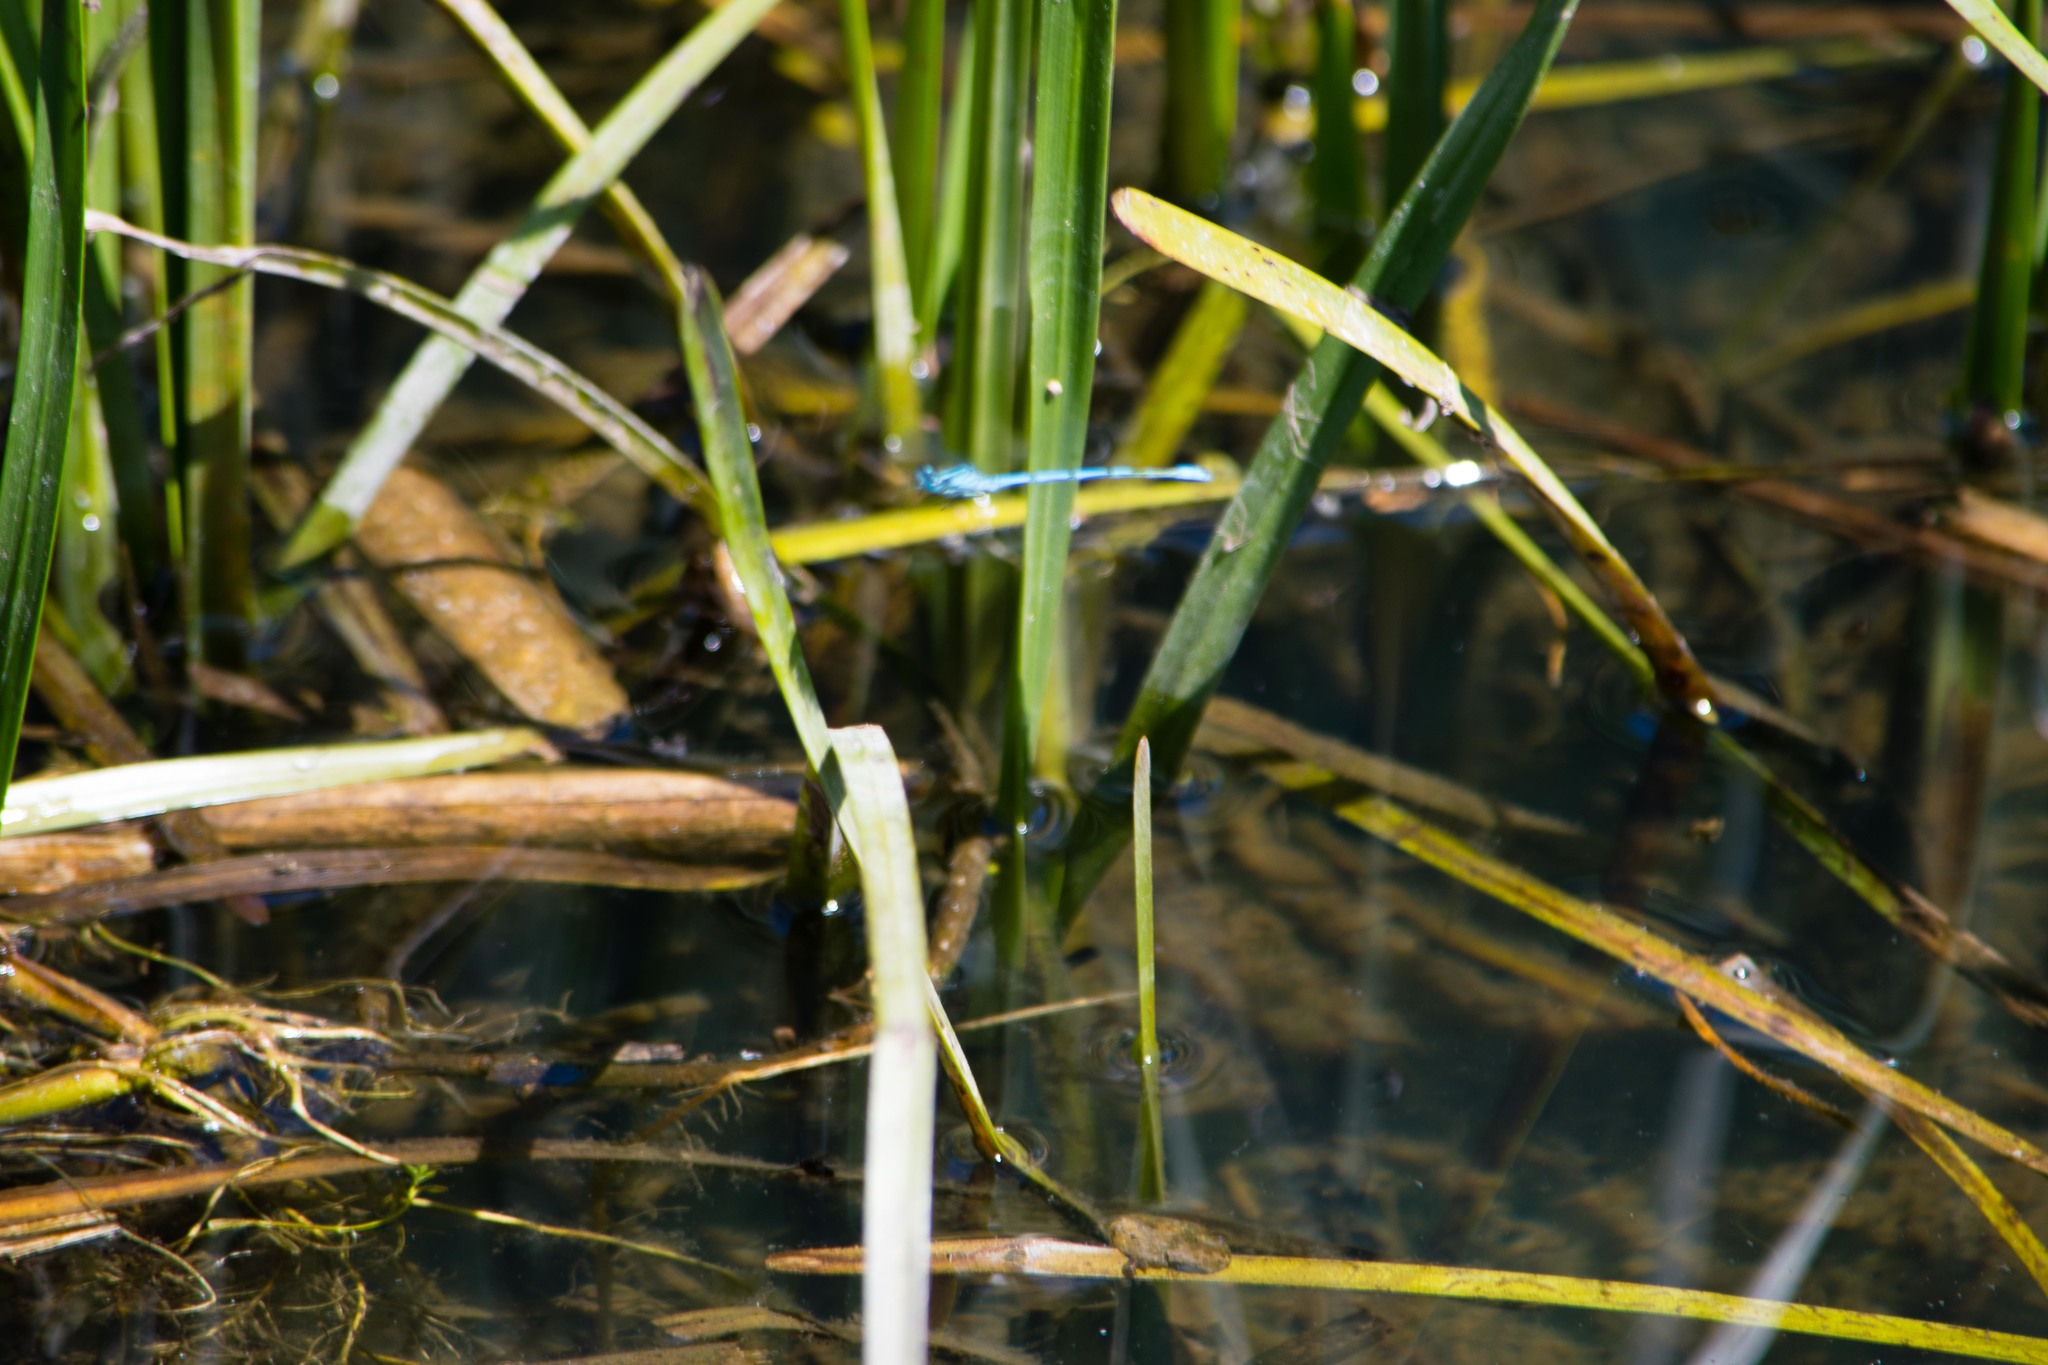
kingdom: Animalia
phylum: Arthropoda
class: Insecta
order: Odonata
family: Coenagrionidae
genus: Coenagrion
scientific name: Coenagrion puella
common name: Azure damselfly
